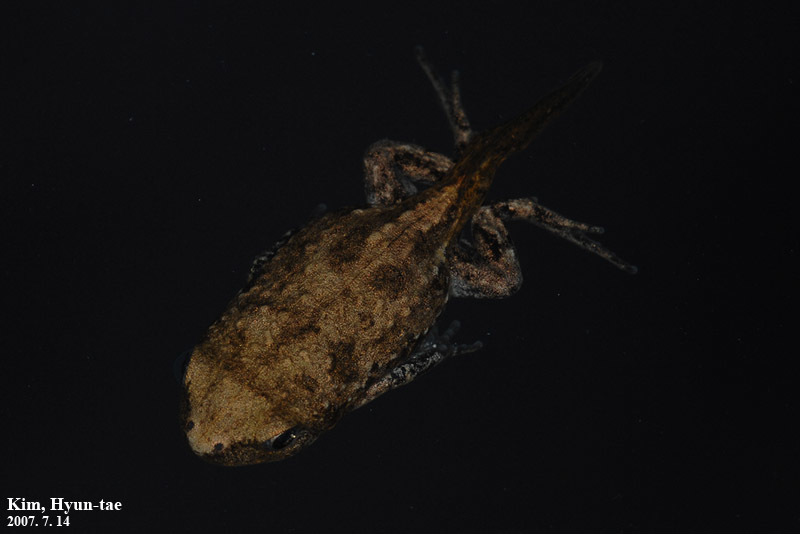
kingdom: Animalia
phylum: Chordata
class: Amphibia
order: Anura
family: Microhylidae
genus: Kaloula
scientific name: Kaloula borealis
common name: Boreal digging frog
